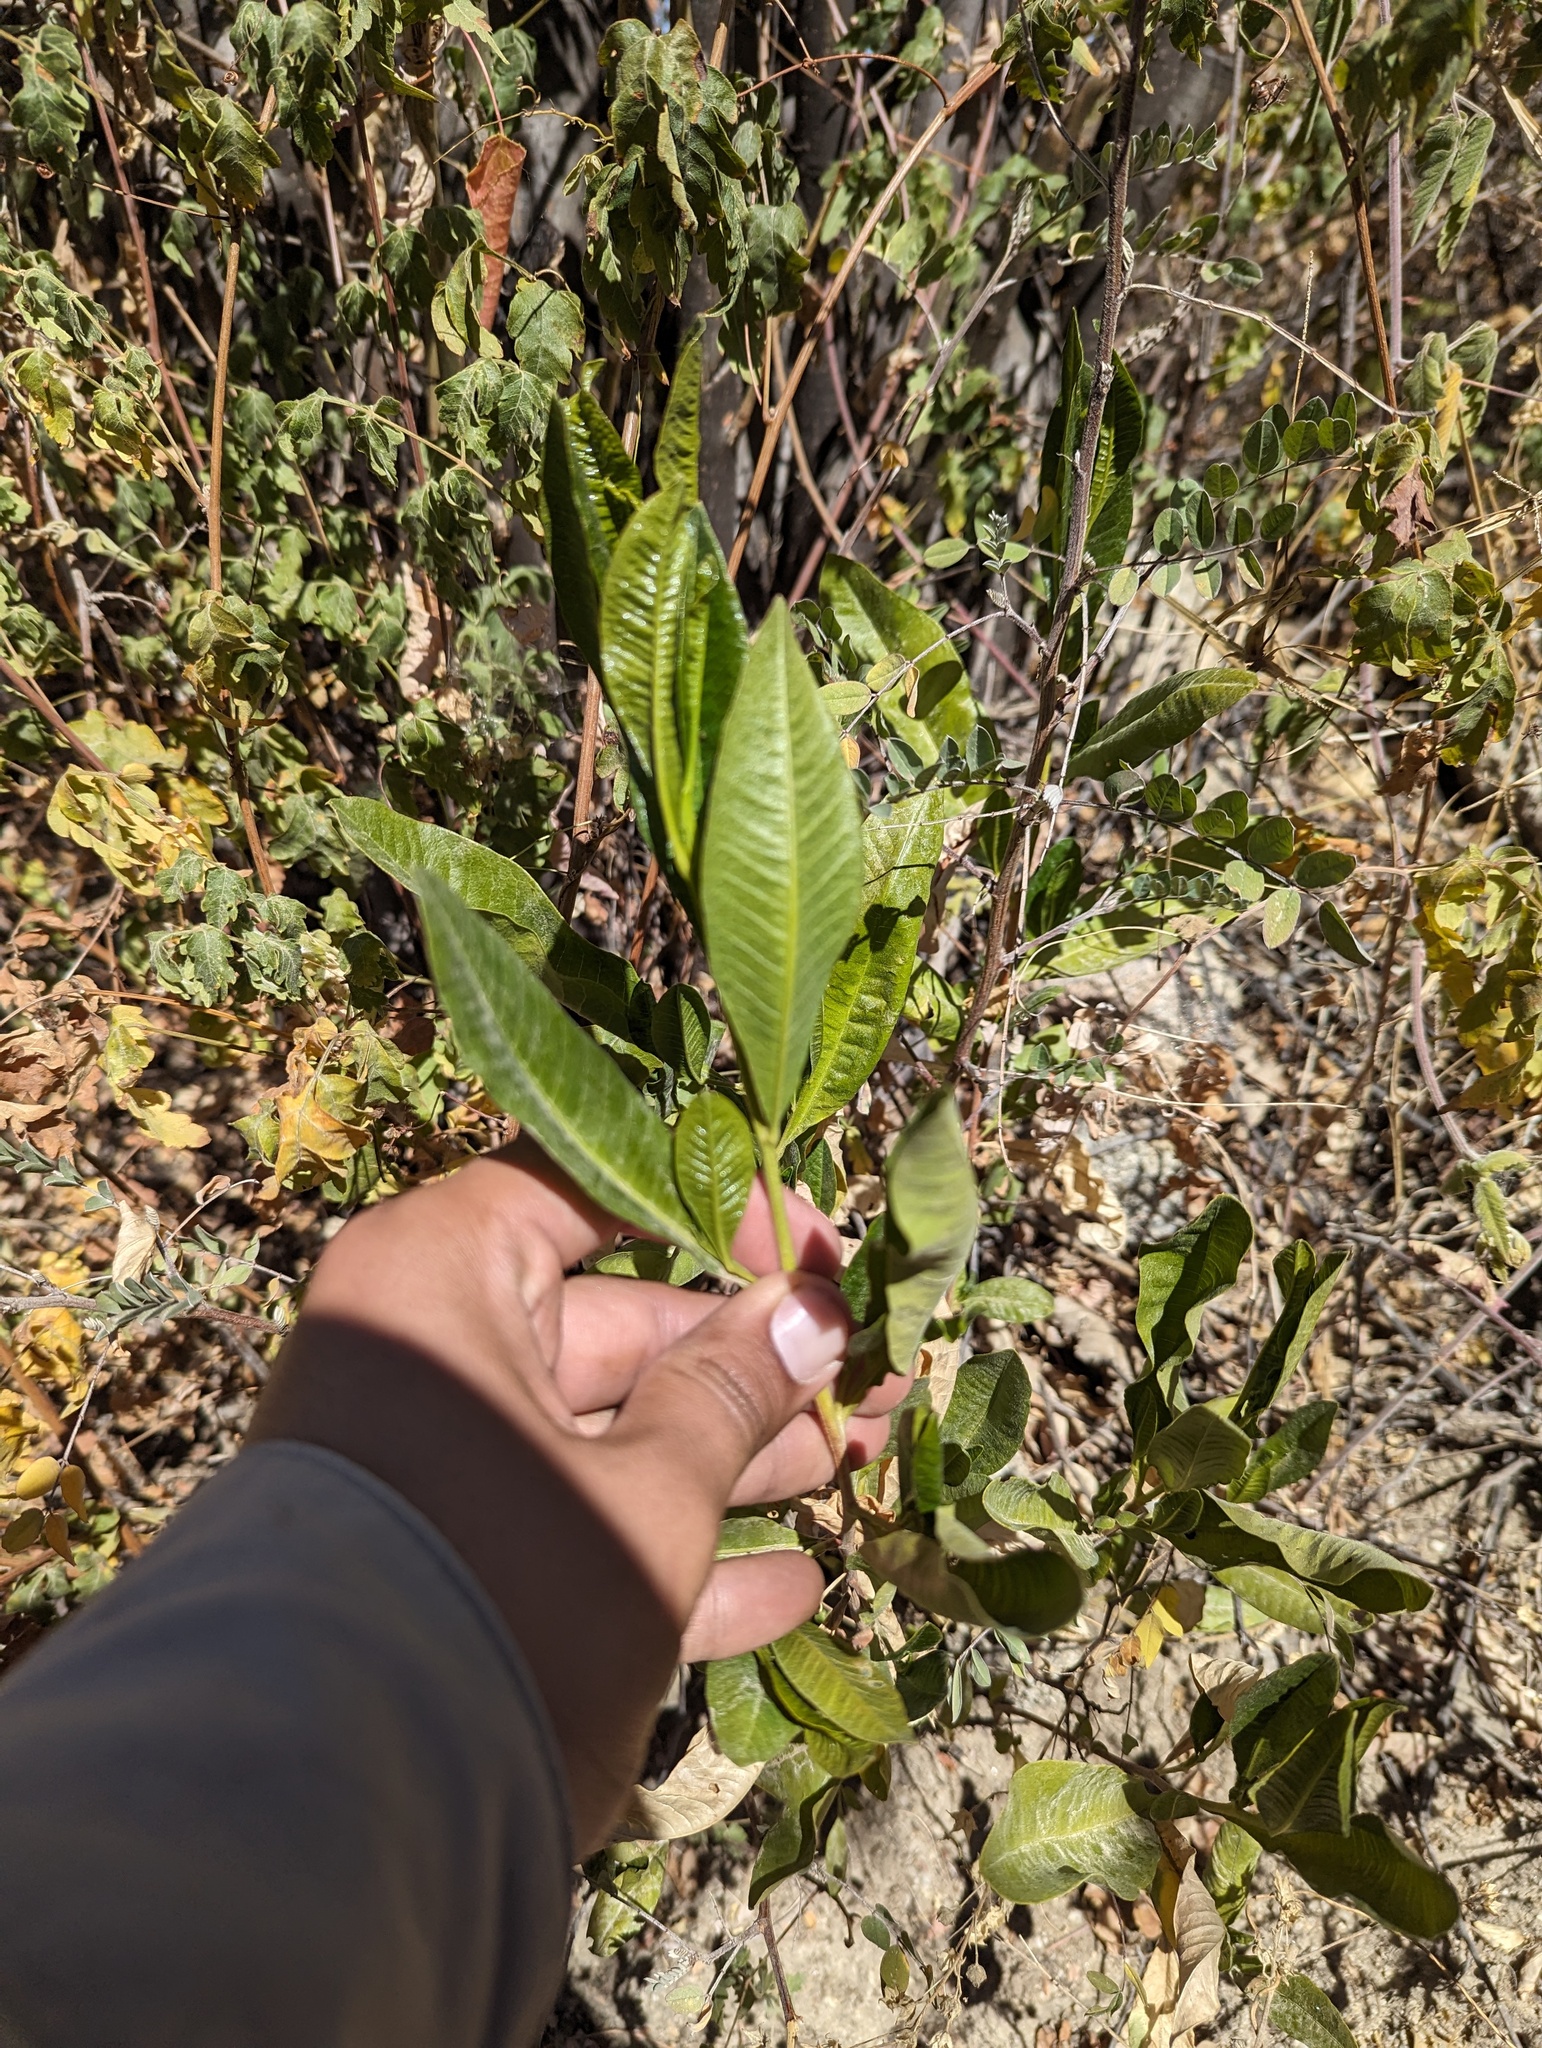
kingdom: Plantae
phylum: Tracheophyta
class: Magnoliopsida
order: Sapindales
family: Sapindaceae
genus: Dodonaea
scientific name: Dodonaea viscosa
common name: Hopbush
